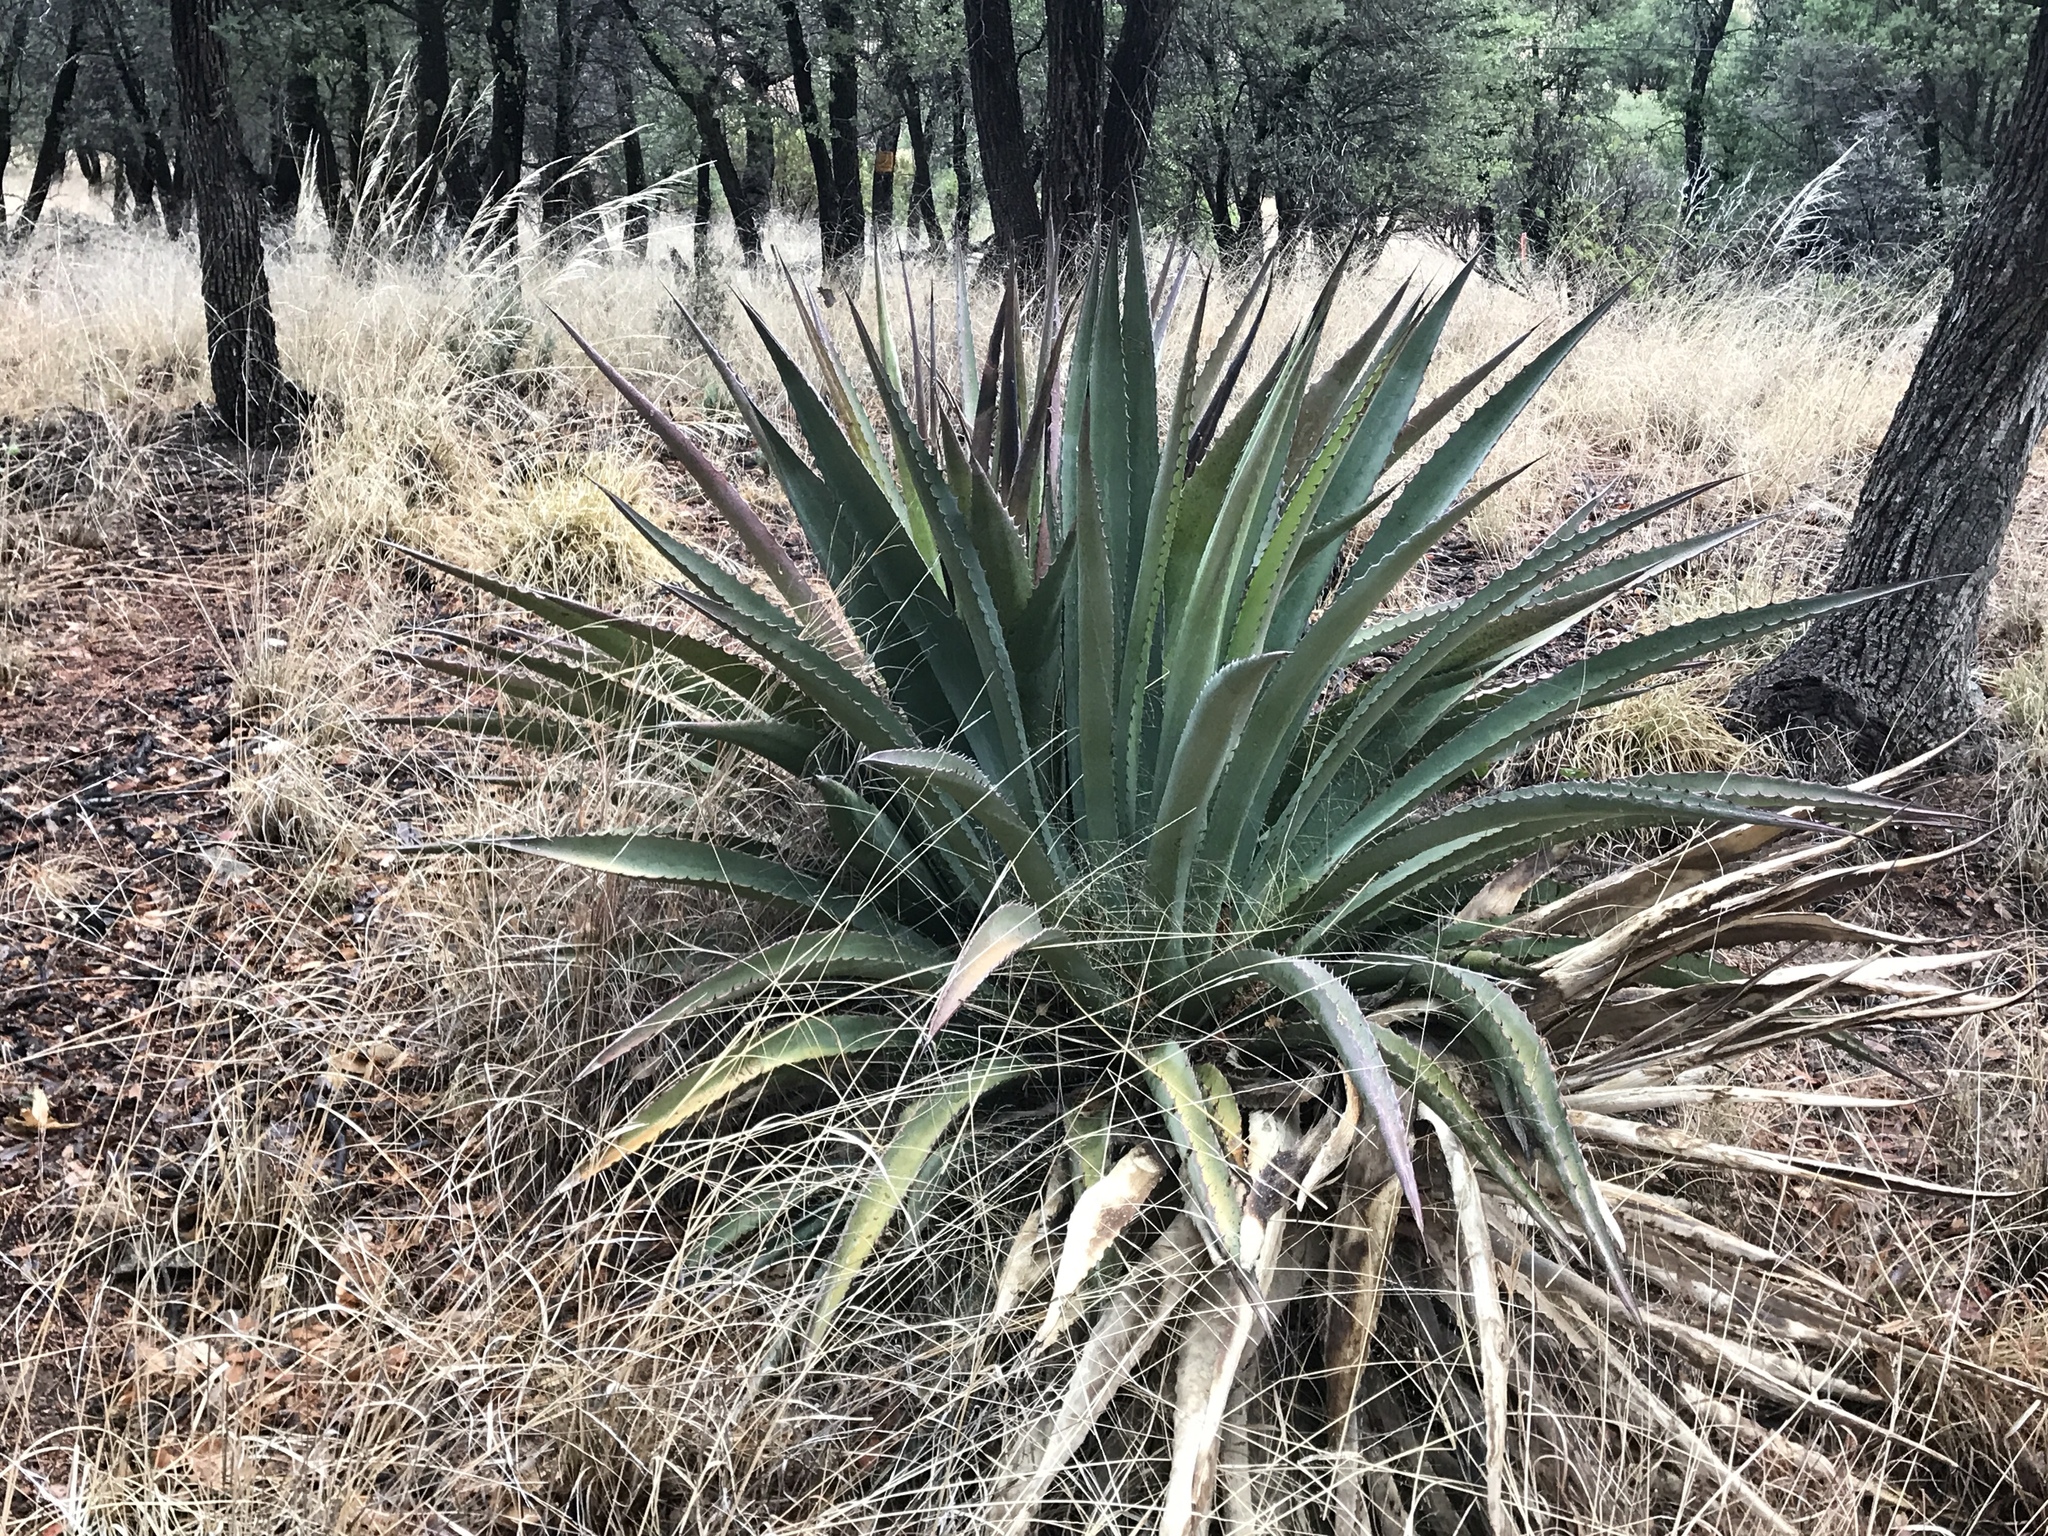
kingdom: Plantae
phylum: Tracheophyta
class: Liliopsida
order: Asparagales
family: Asparagaceae
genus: Agave
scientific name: Agave palmeri
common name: Palmer agave
